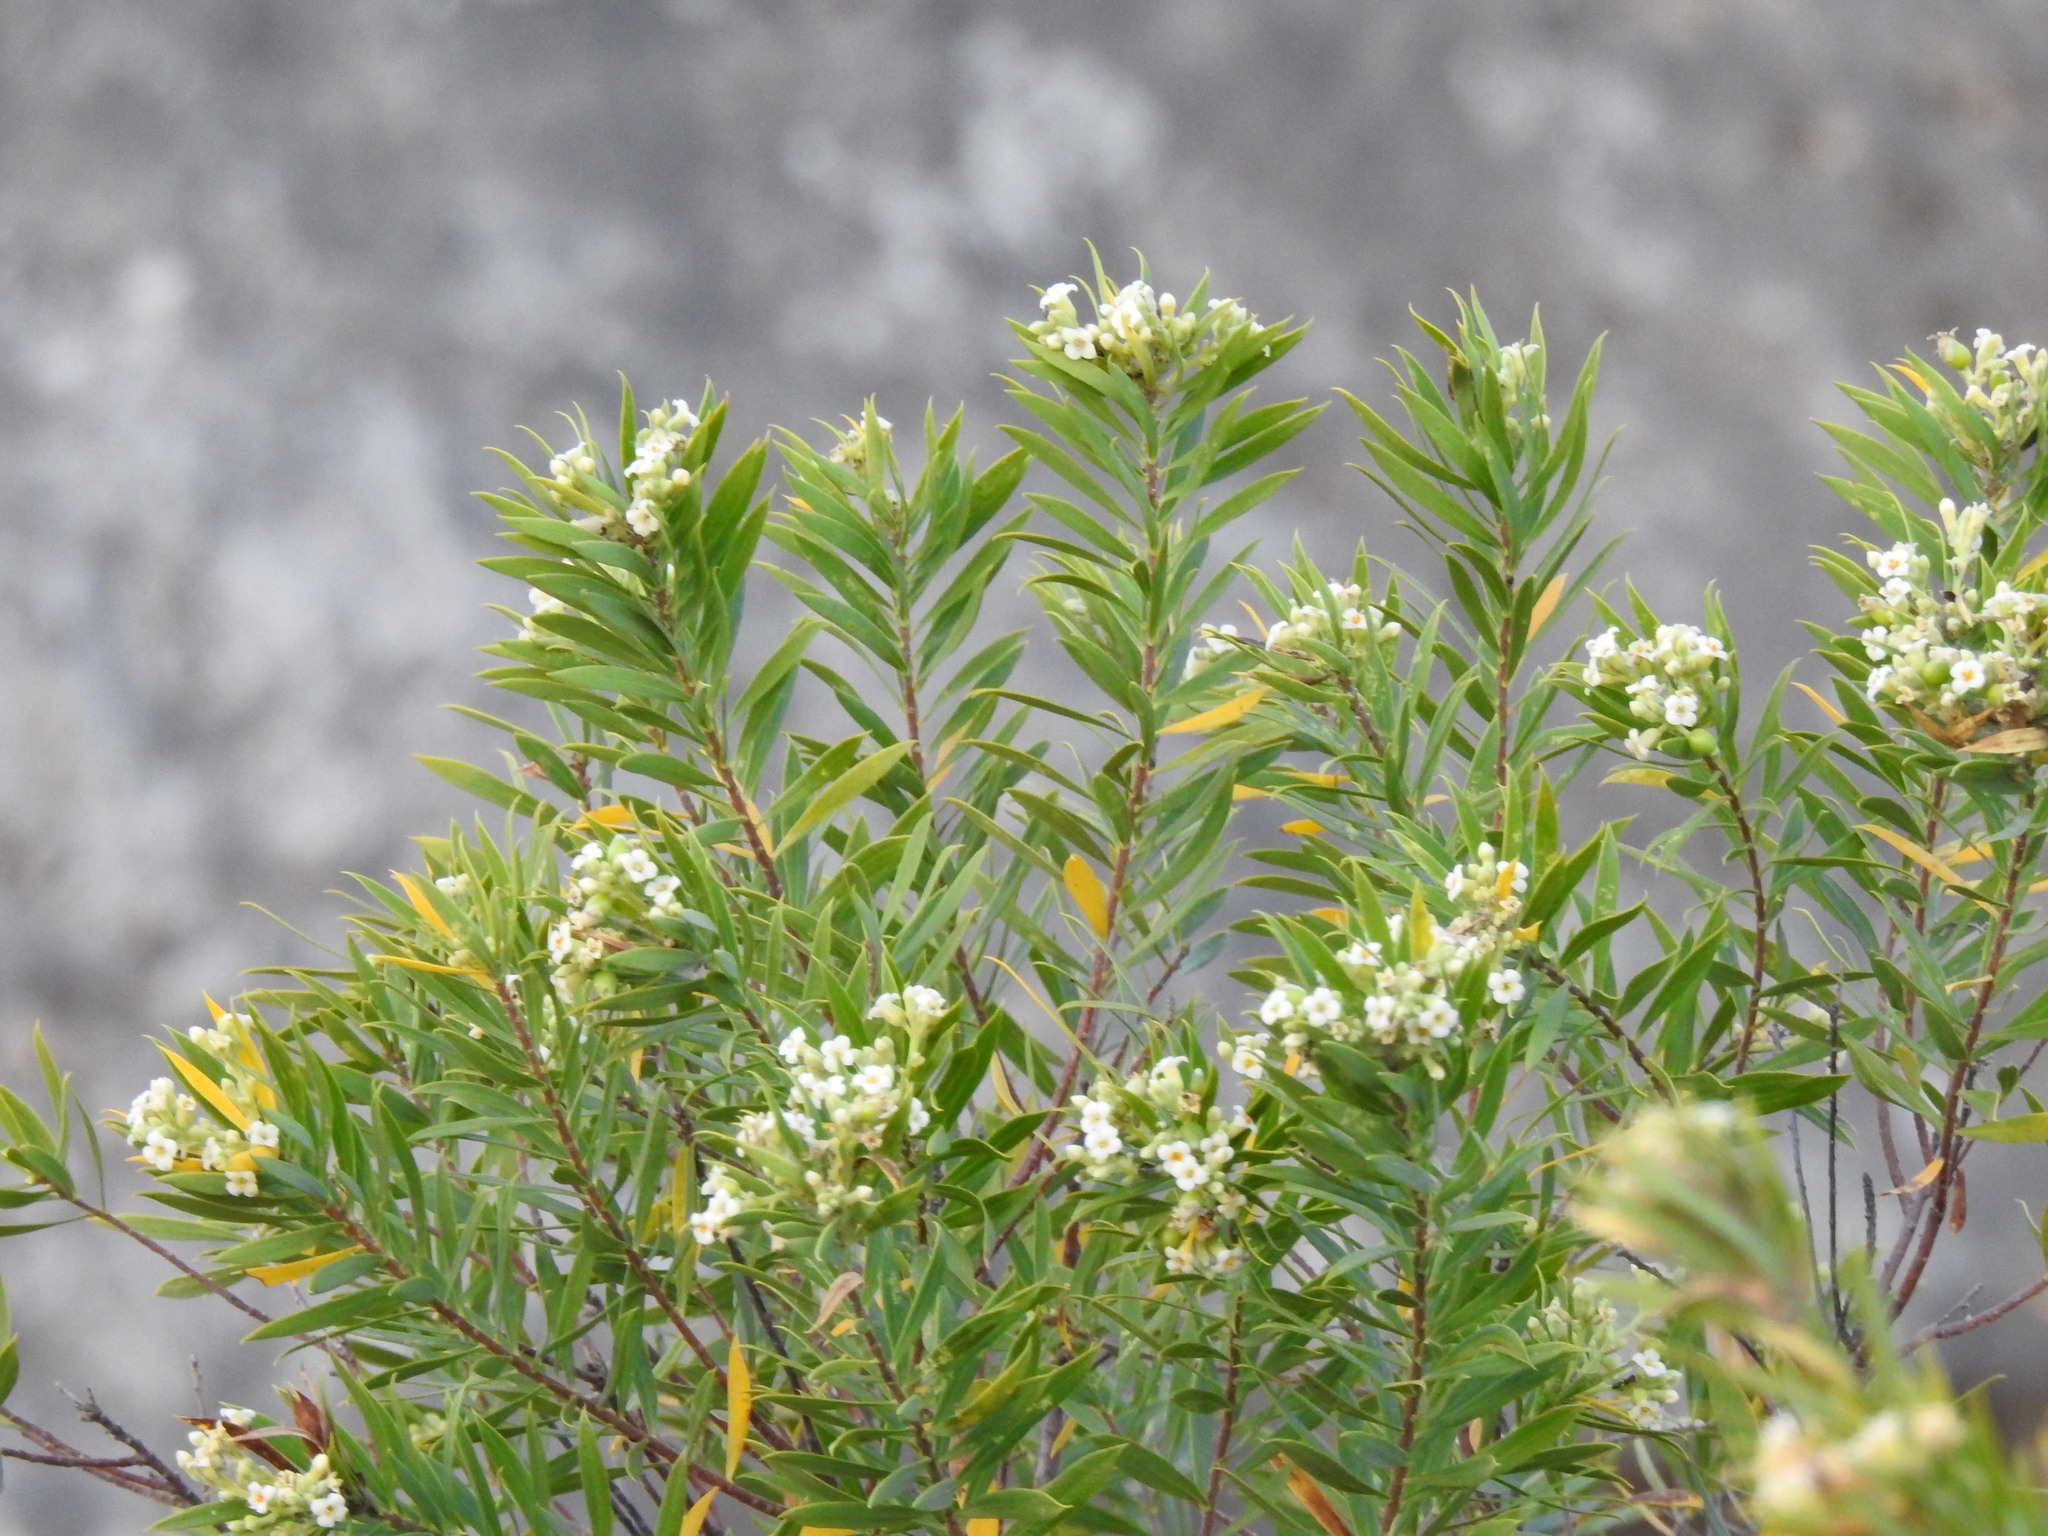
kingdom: Plantae
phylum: Tracheophyta
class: Magnoliopsida
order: Malvales
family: Thymelaeaceae
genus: Daphne
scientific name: Daphne gnidium
